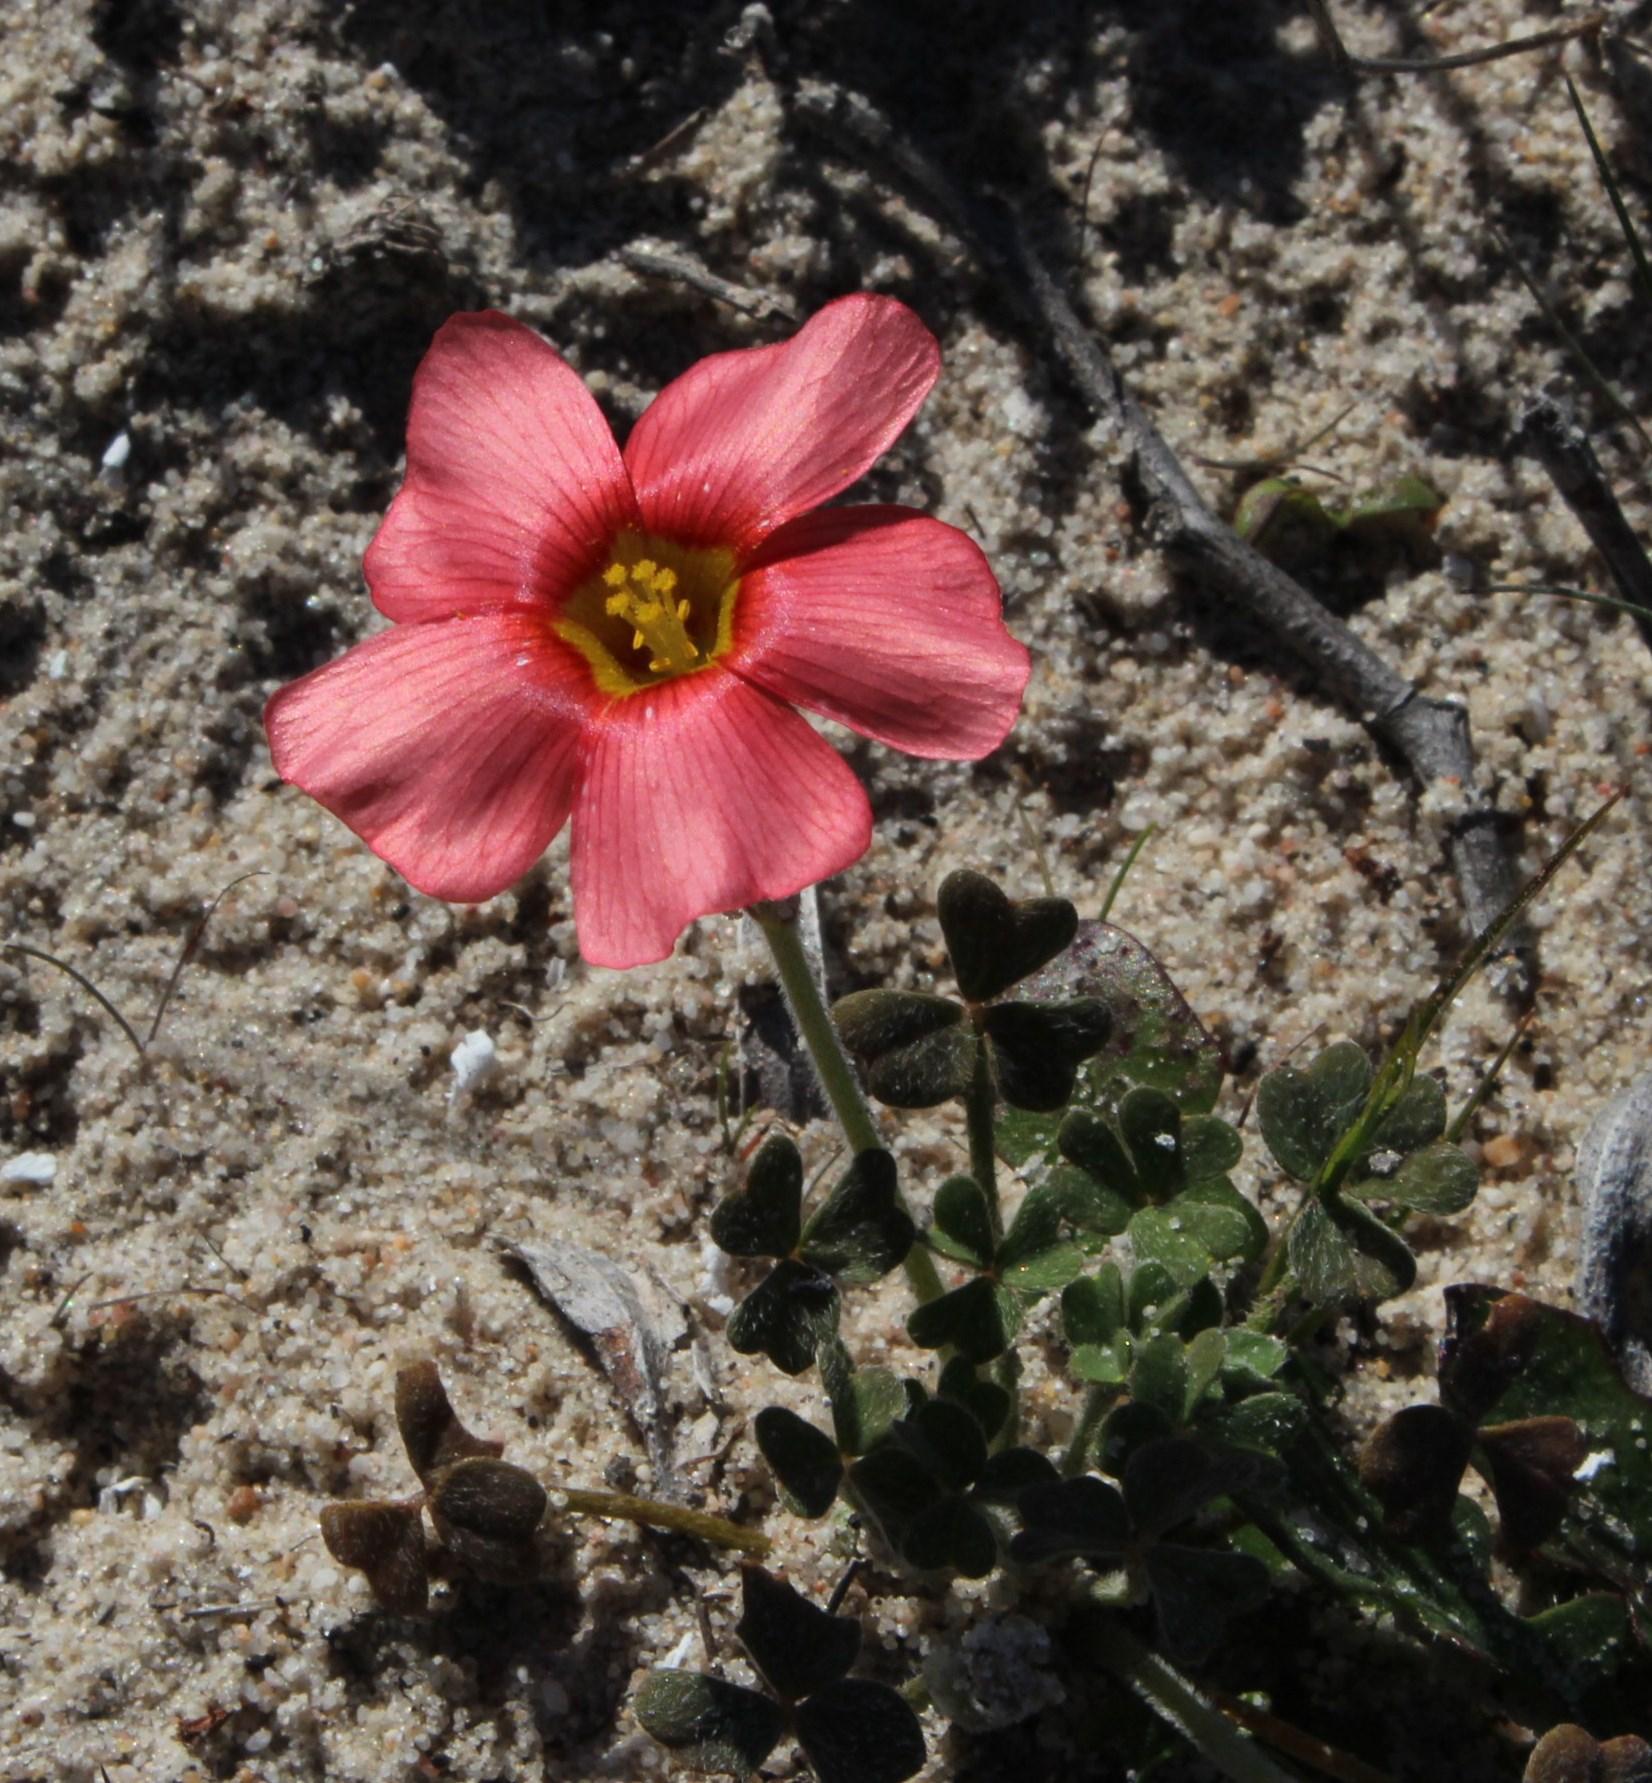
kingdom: Plantae
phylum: Tracheophyta
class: Magnoliopsida
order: Oxalidales
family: Oxalidaceae
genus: Oxalis
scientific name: Oxalis obtusa
